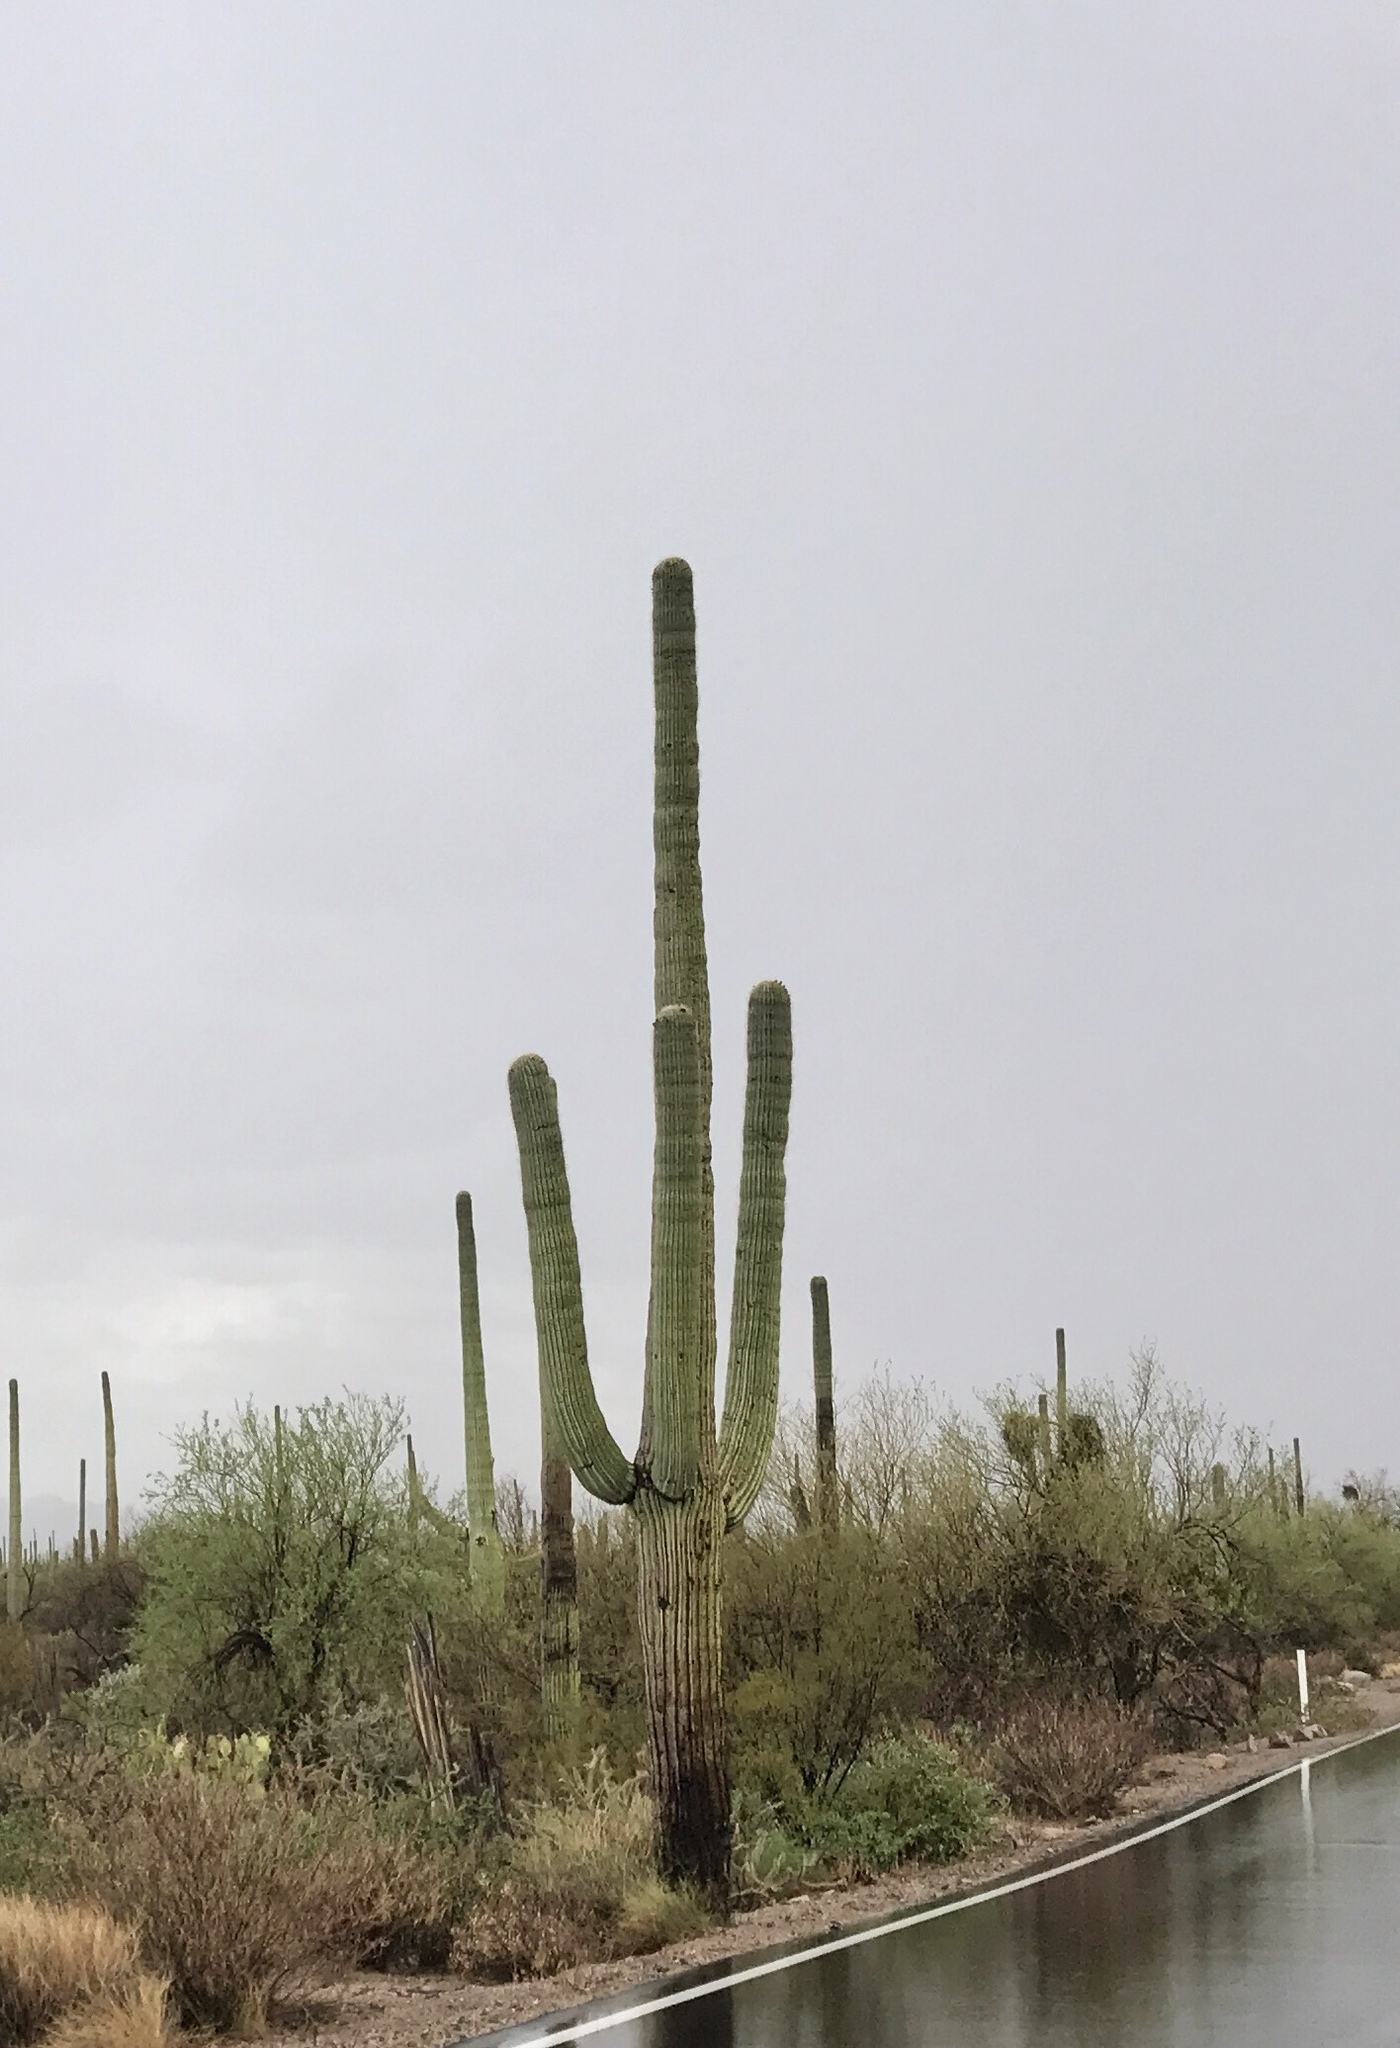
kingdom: Plantae
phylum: Tracheophyta
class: Magnoliopsida
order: Caryophyllales
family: Cactaceae
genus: Carnegiea
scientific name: Carnegiea gigantea
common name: Saguaro
